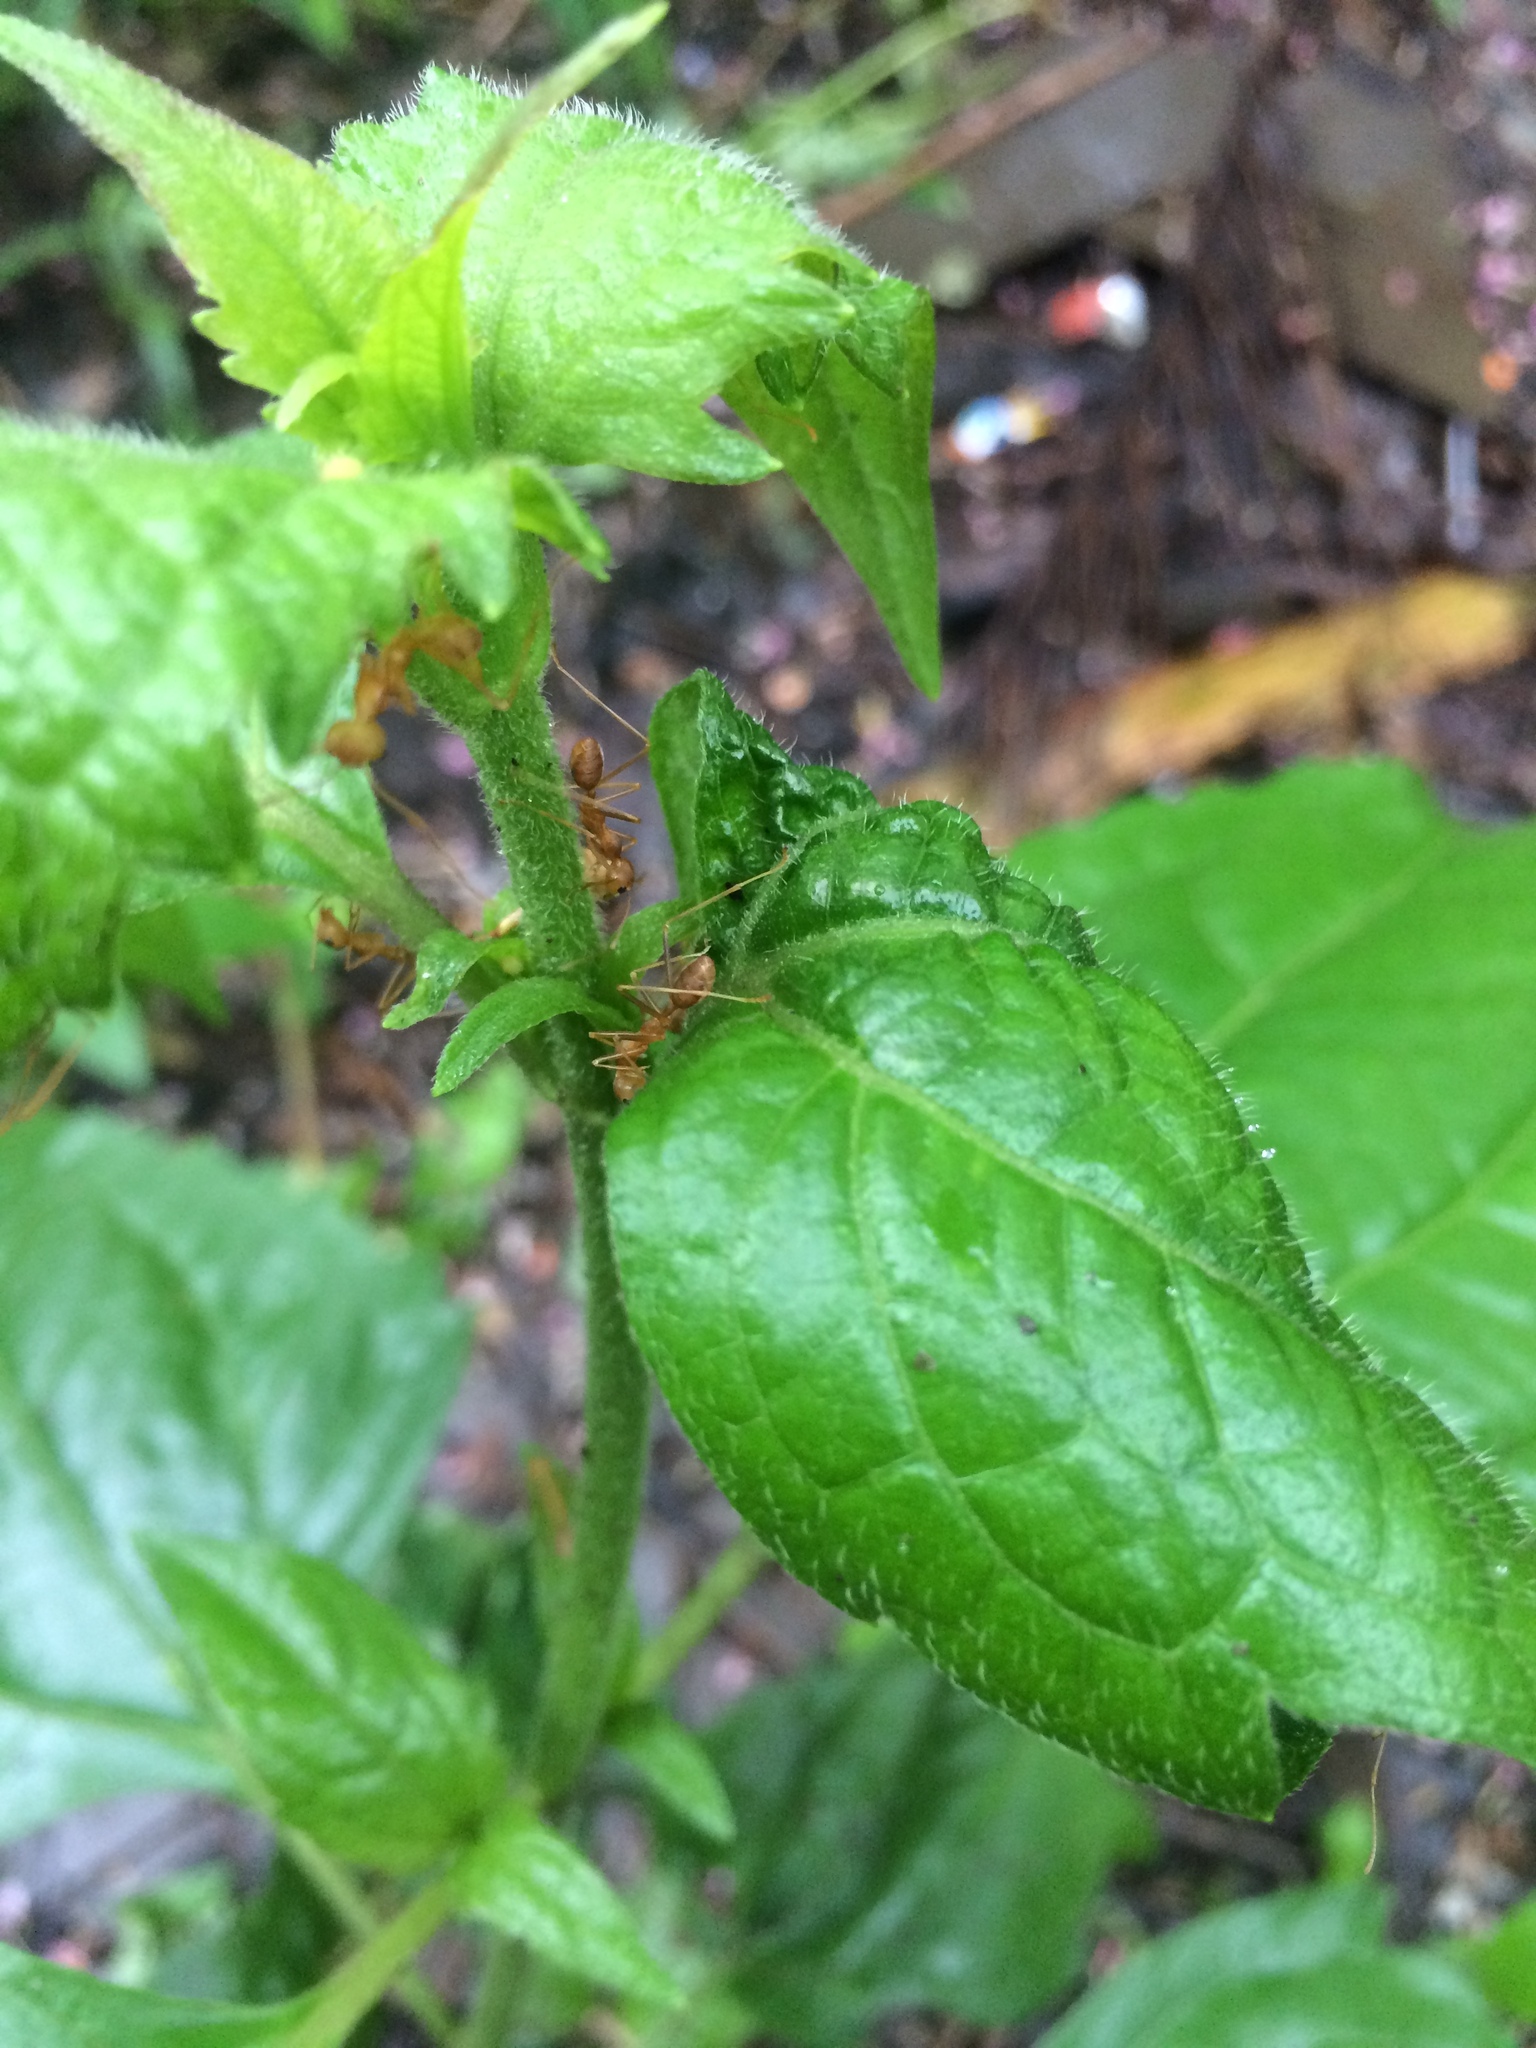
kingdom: Plantae
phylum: Tracheophyta
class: Magnoliopsida
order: Malpighiales
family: Euphorbiaceae
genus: Acalypha
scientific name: Acalypha indica
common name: Indian acalypha
